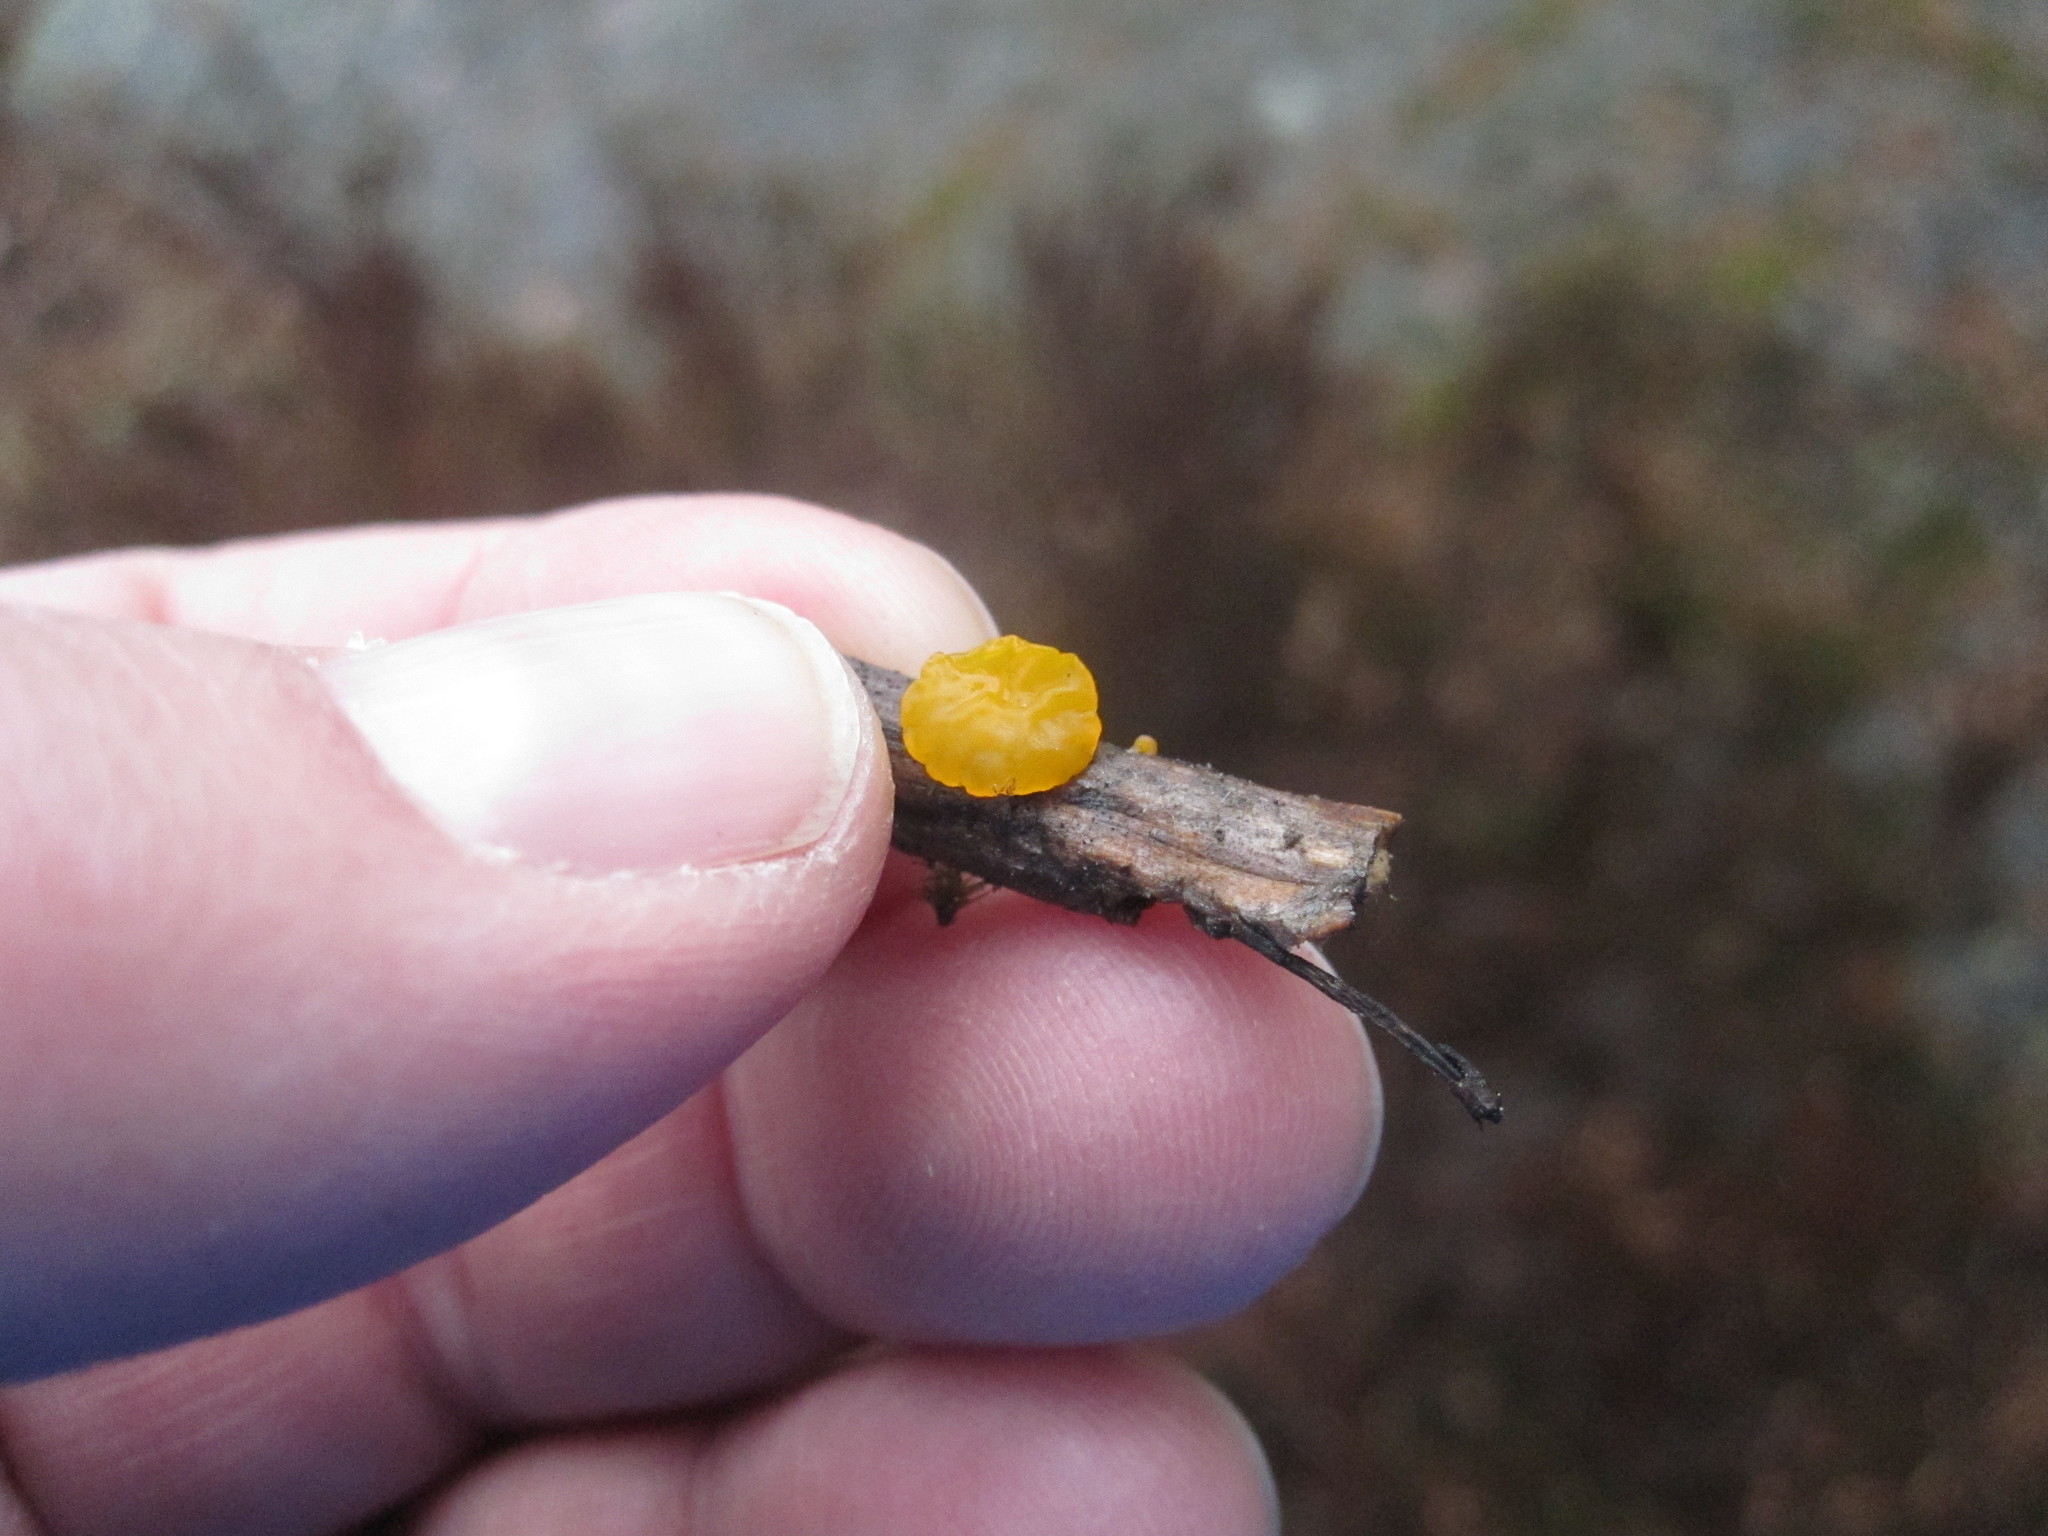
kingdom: Fungi
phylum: Basidiomycota
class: Tremellomycetes
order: Tremellales
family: Tremellaceae
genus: Tremella
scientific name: Tremella mesenterica
